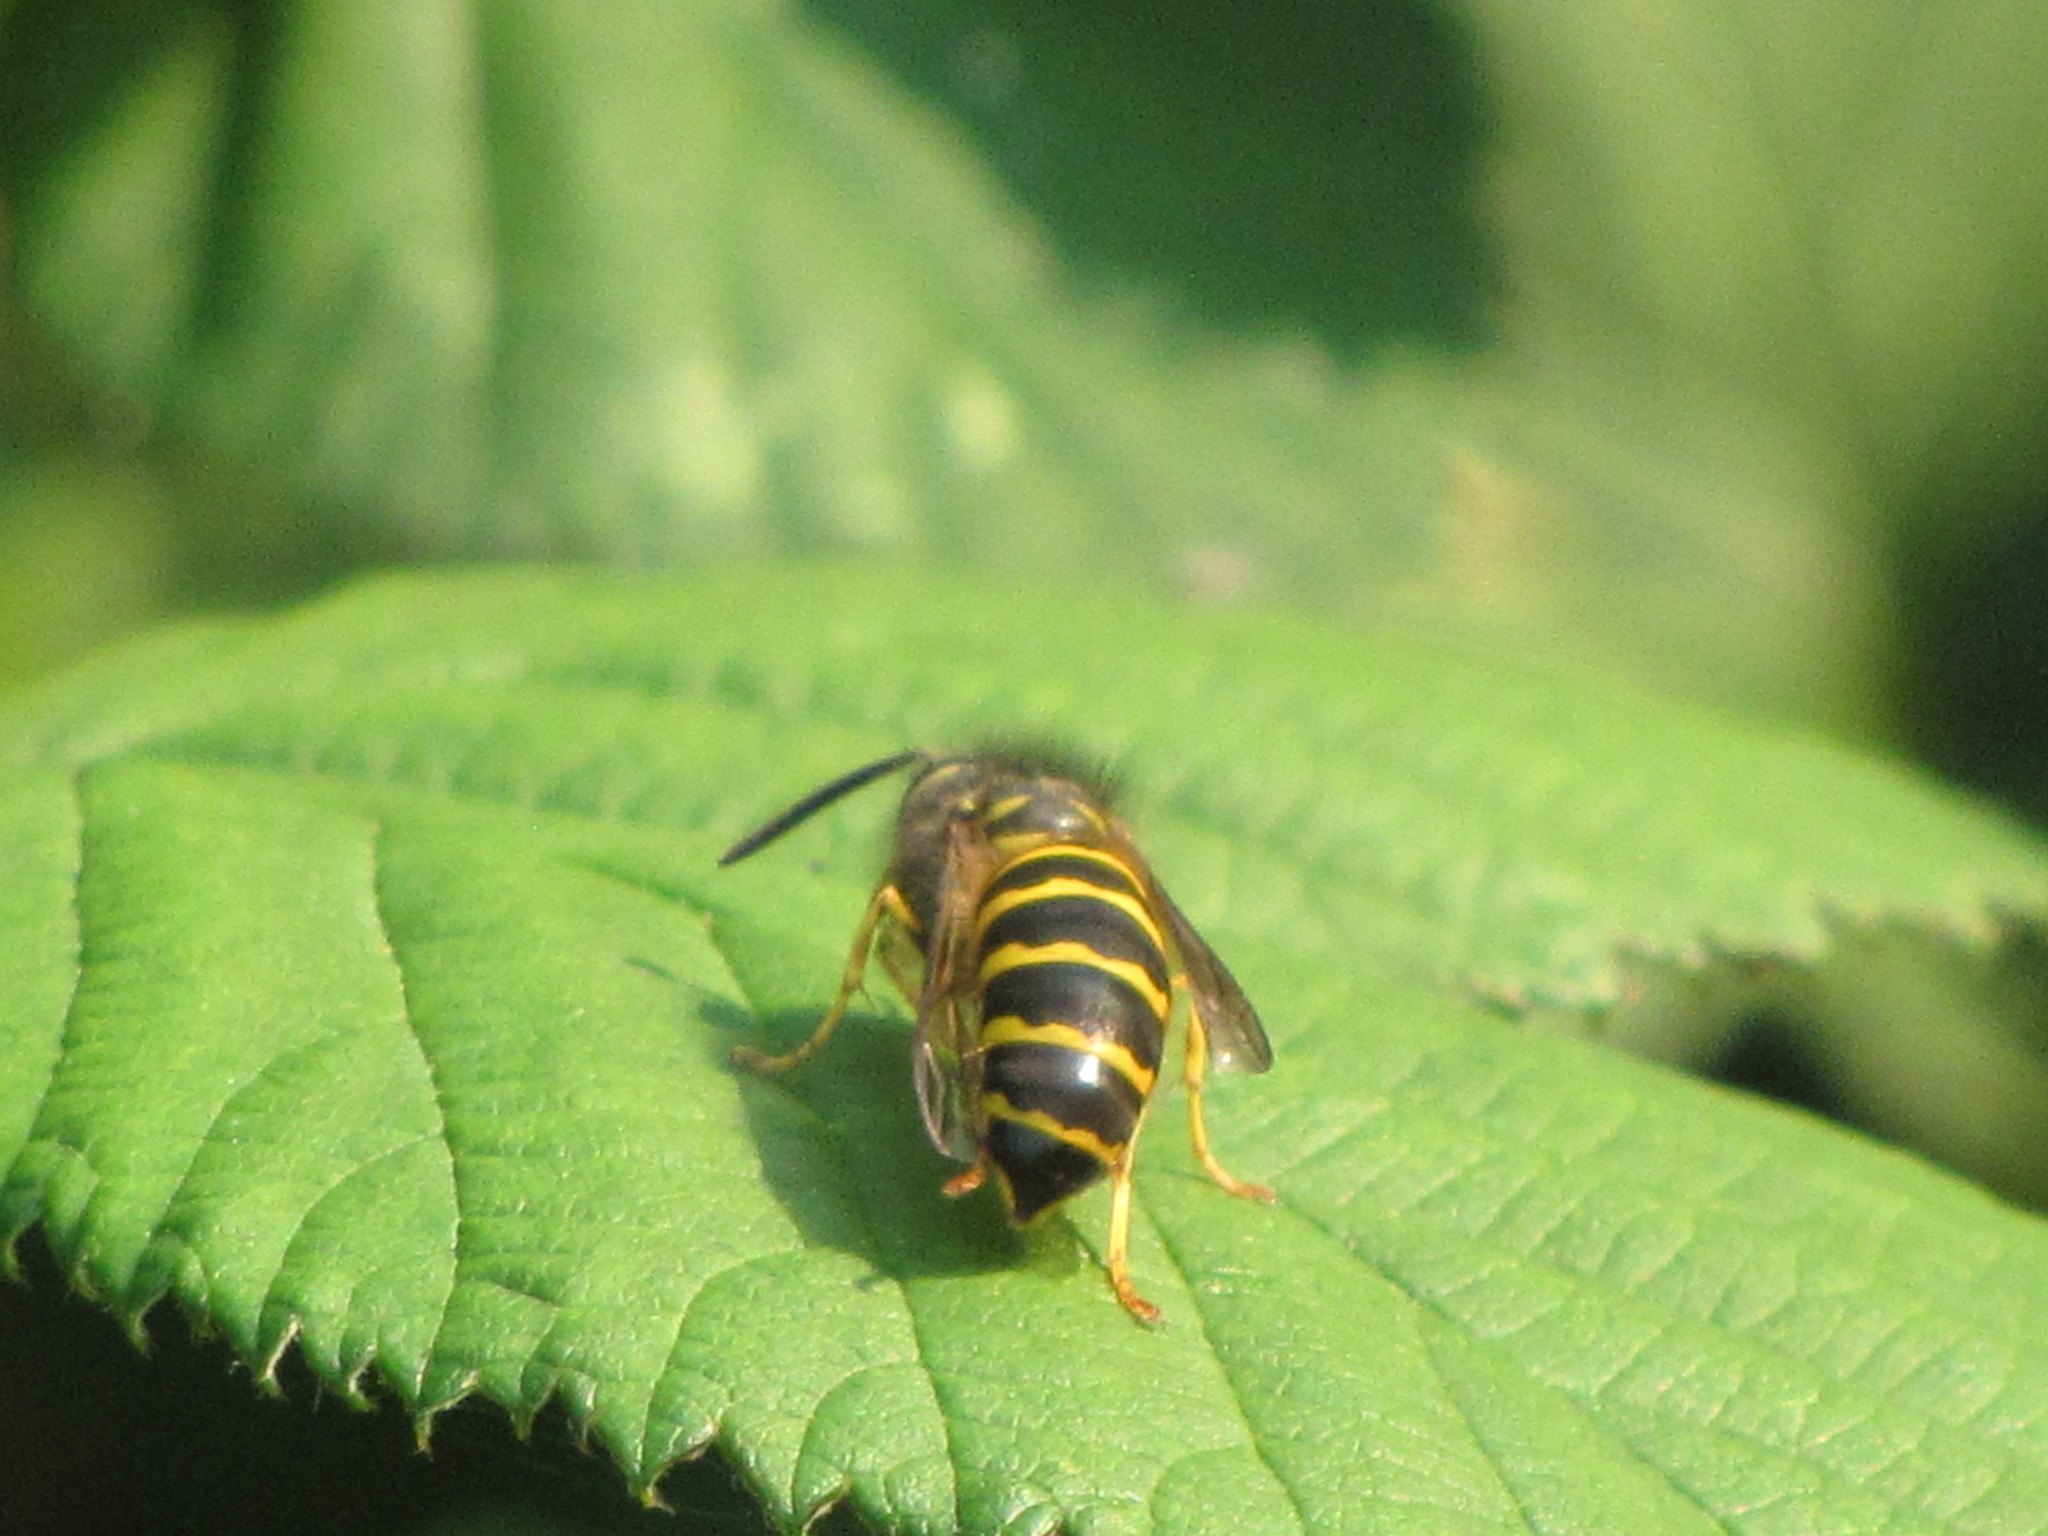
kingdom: Animalia
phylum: Arthropoda
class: Insecta
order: Hymenoptera
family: Vespidae
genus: Vespula
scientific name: Vespula alascensis
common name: Alaska yellowjacket
